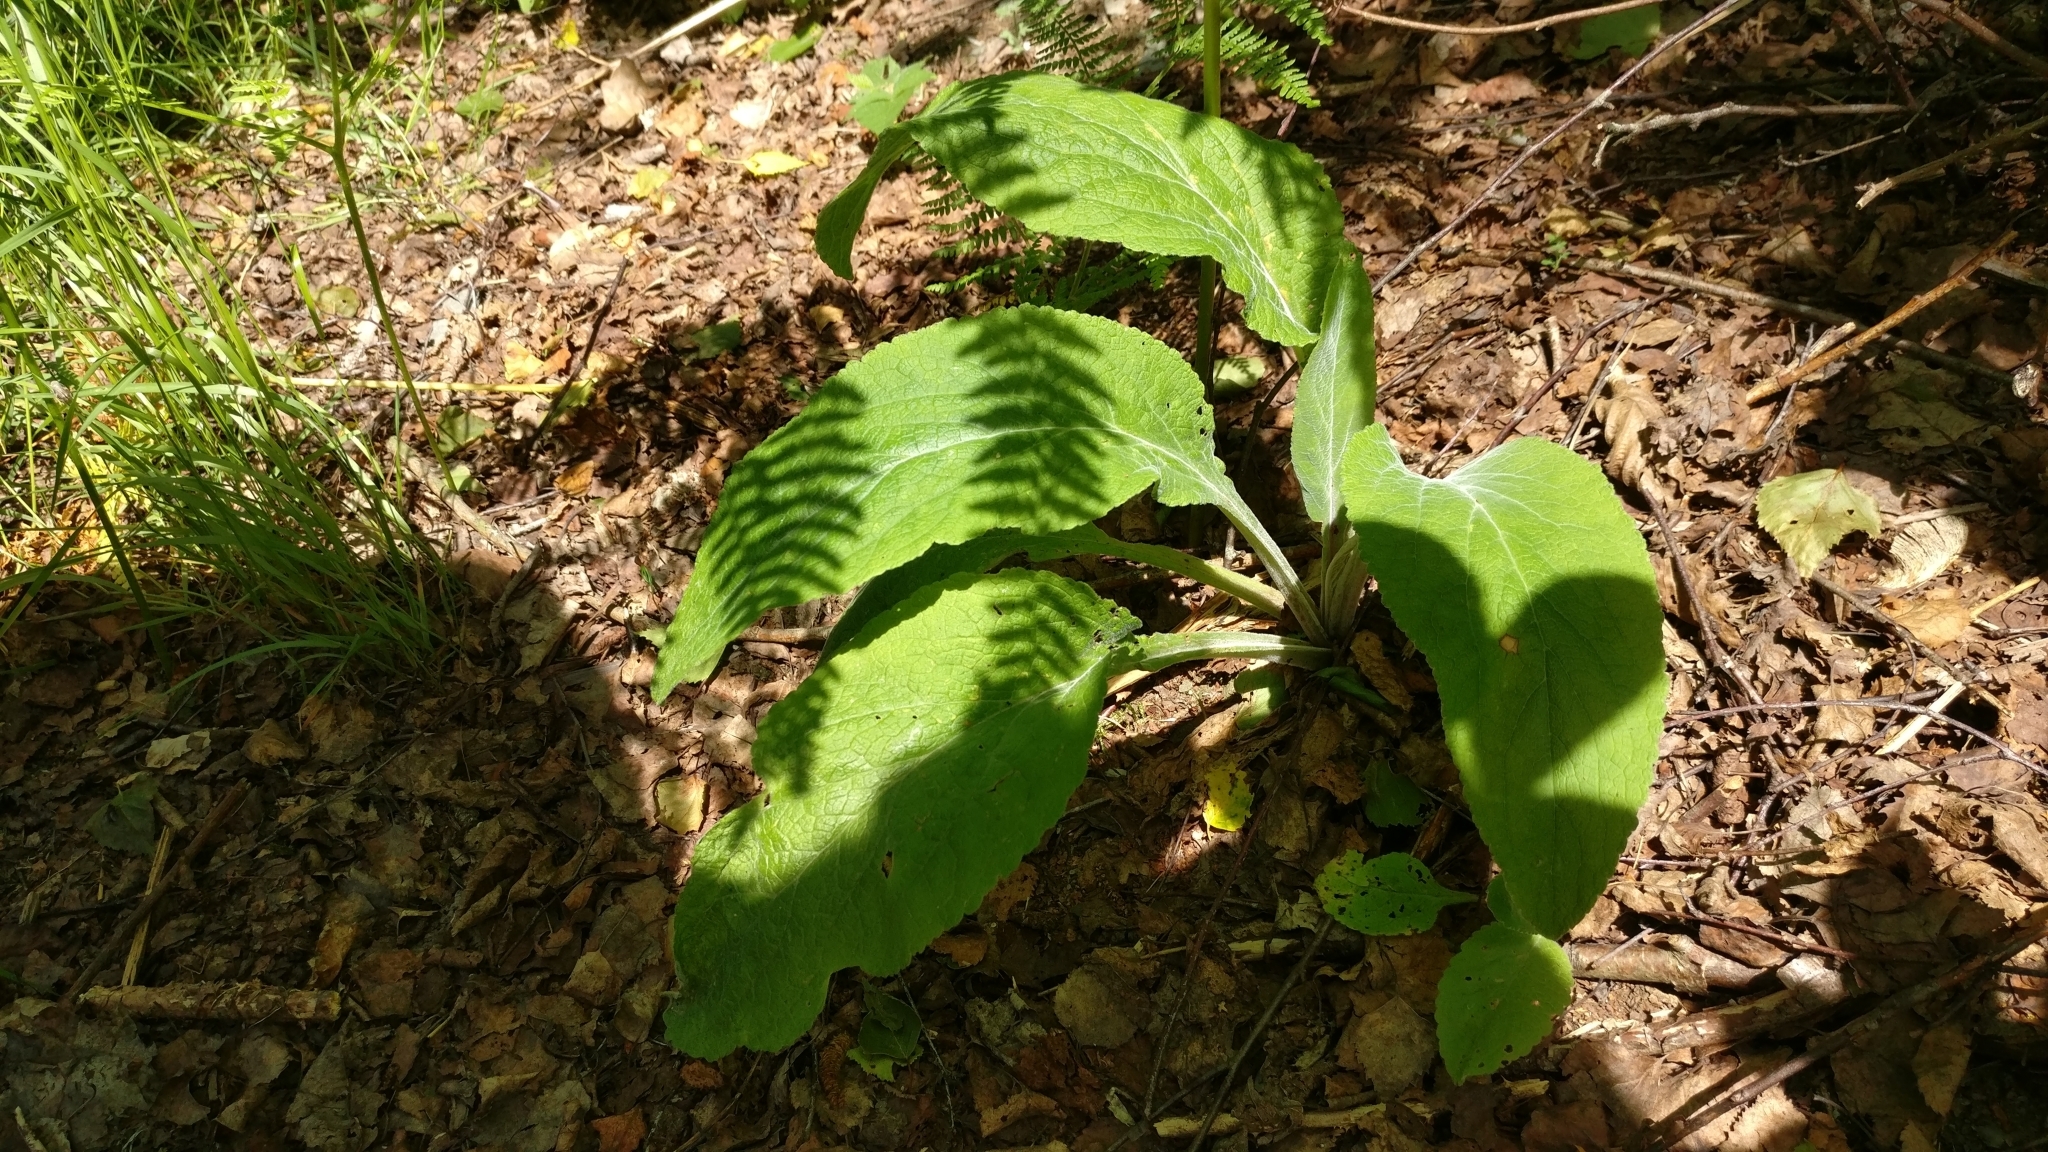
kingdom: Plantae
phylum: Tracheophyta
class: Magnoliopsida
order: Lamiales
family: Plantaginaceae
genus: Digitalis
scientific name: Digitalis purpurea
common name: Foxglove
